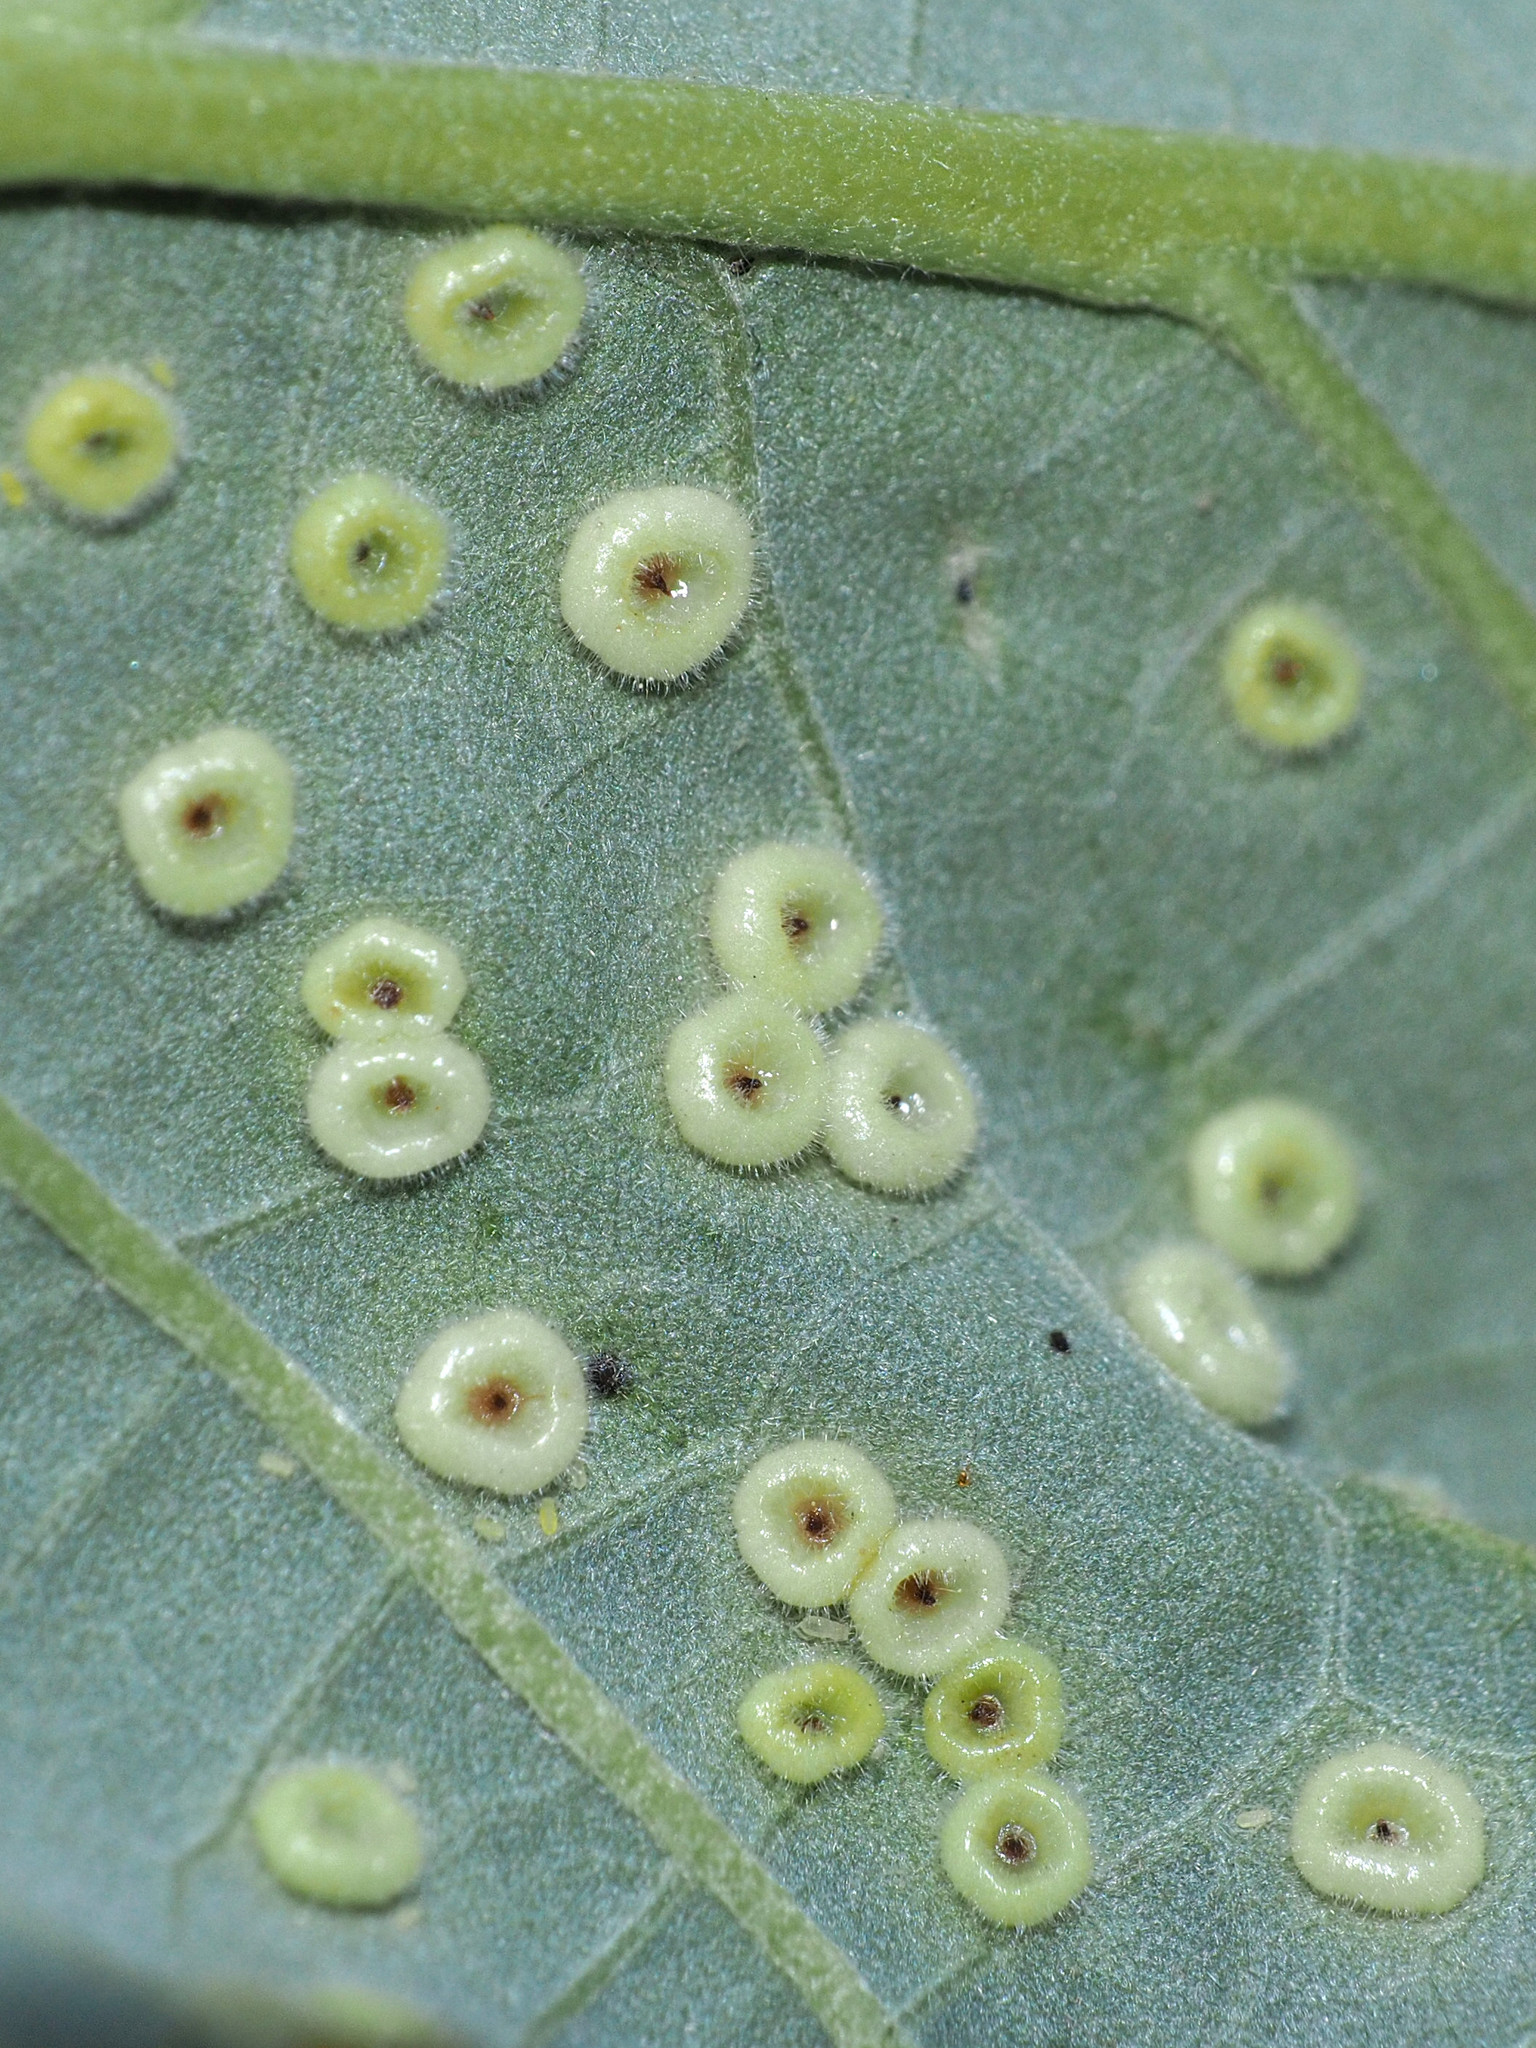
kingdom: Animalia
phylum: Arthropoda
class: Insecta
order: Hymenoptera
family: Cynipidae
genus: Neuroterus
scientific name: Neuroterus
